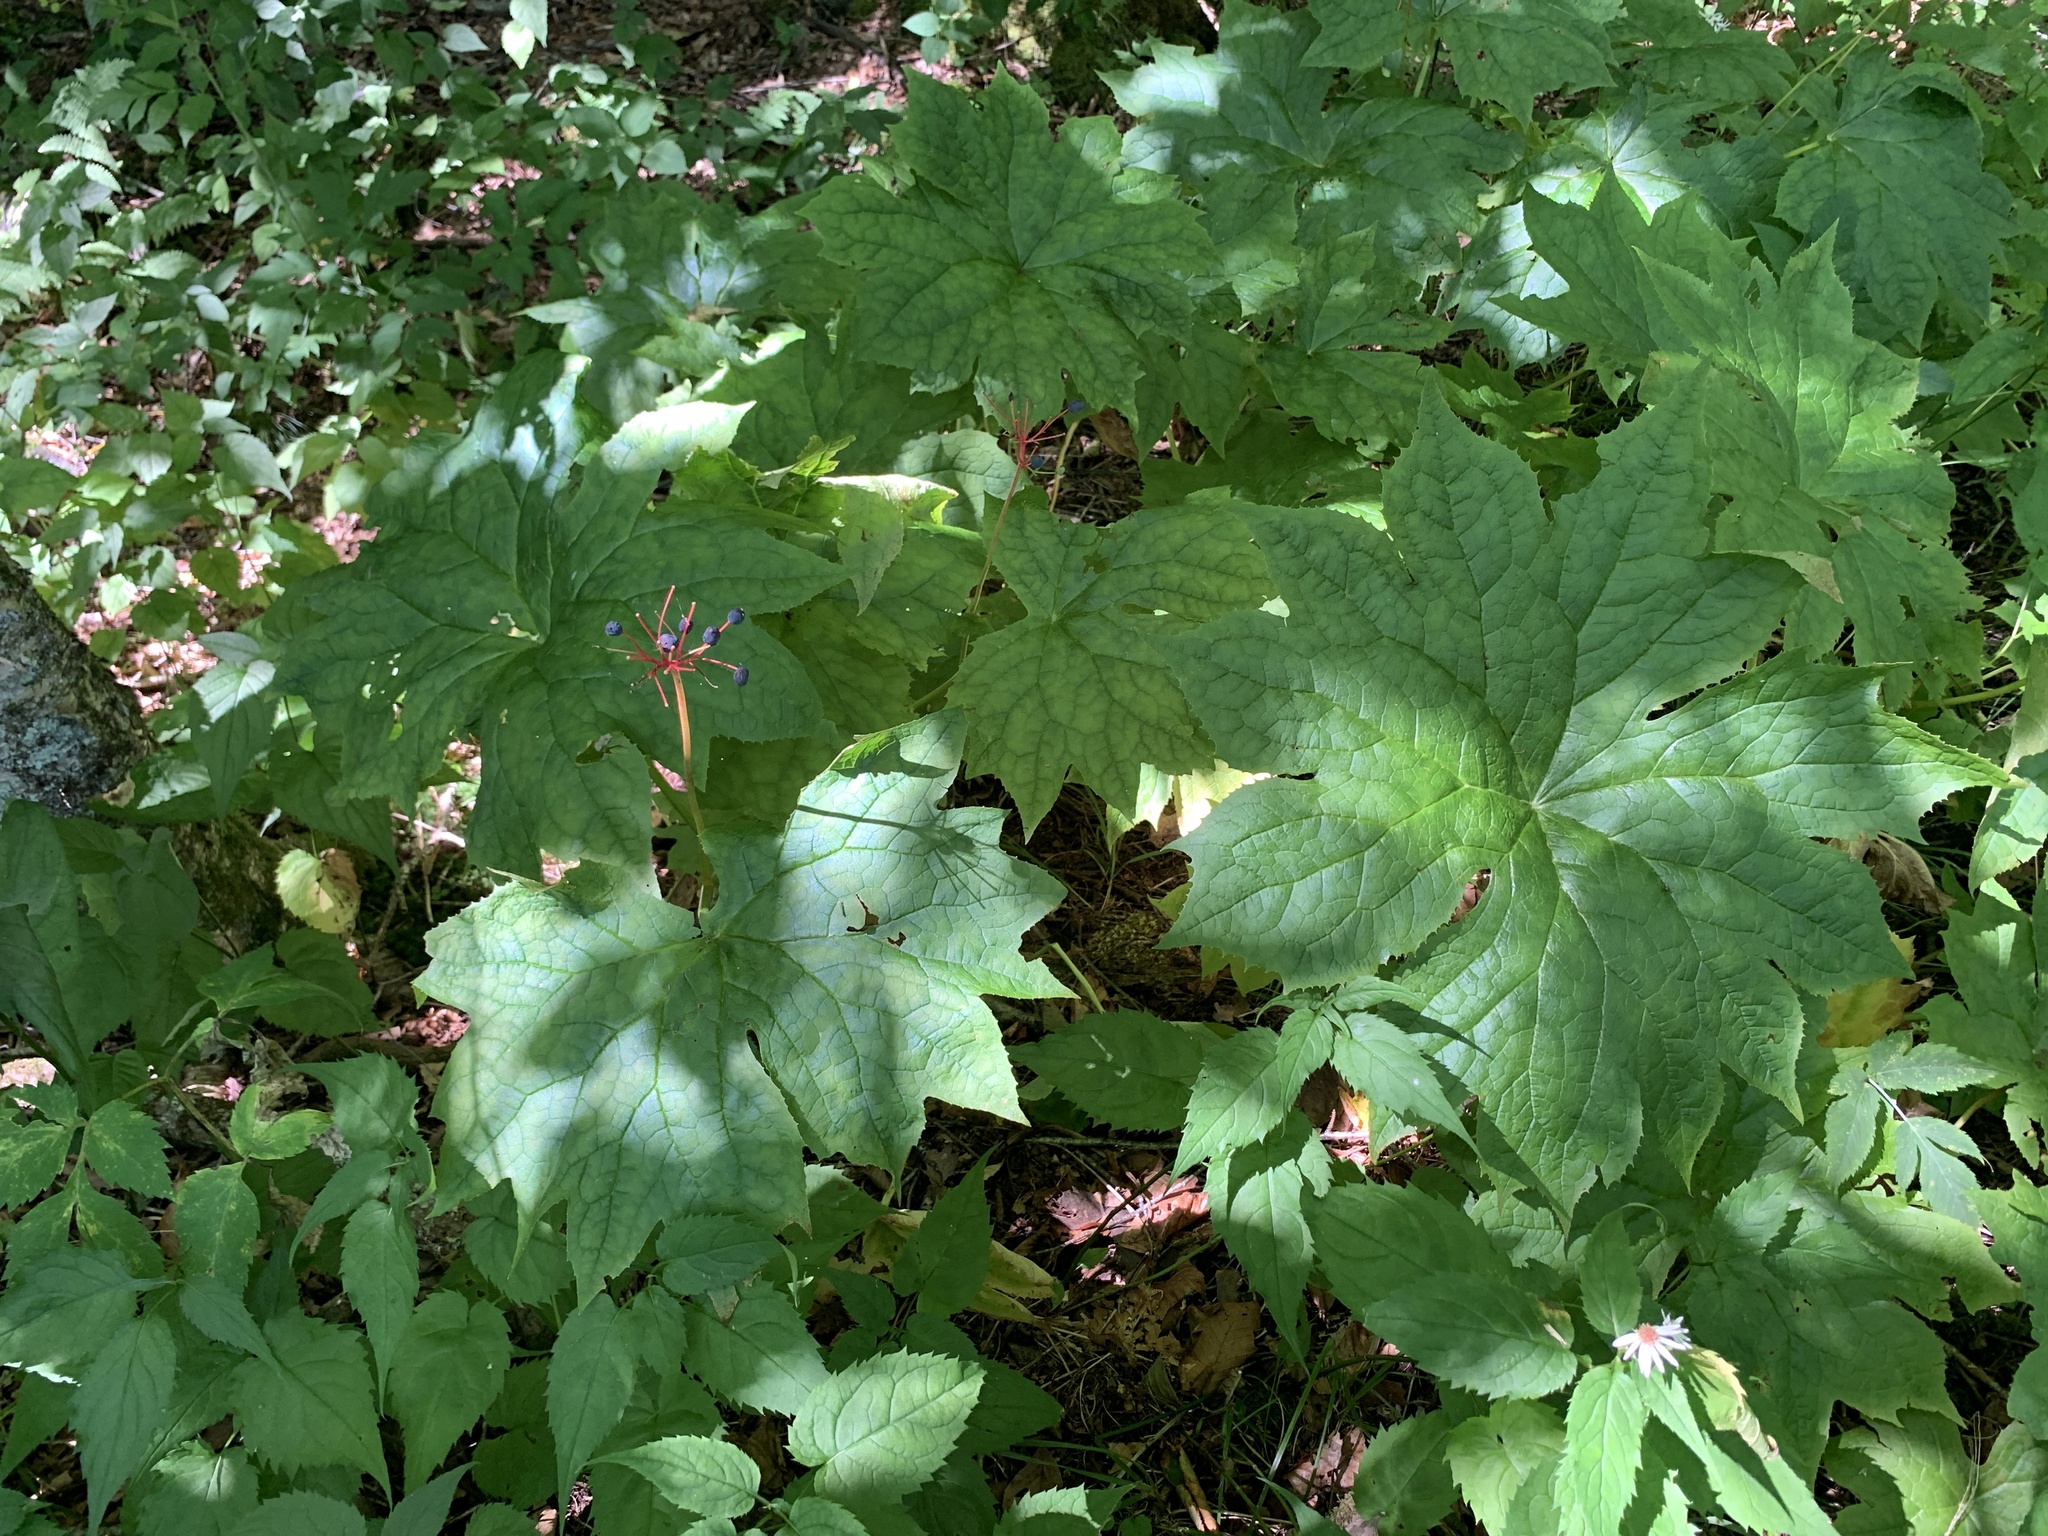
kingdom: Plantae
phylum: Tracheophyta
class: Magnoliopsida
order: Ranunculales
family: Berberidaceae
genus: Diphylleia
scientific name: Diphylleia cymosa
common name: Umbrella-leaf
